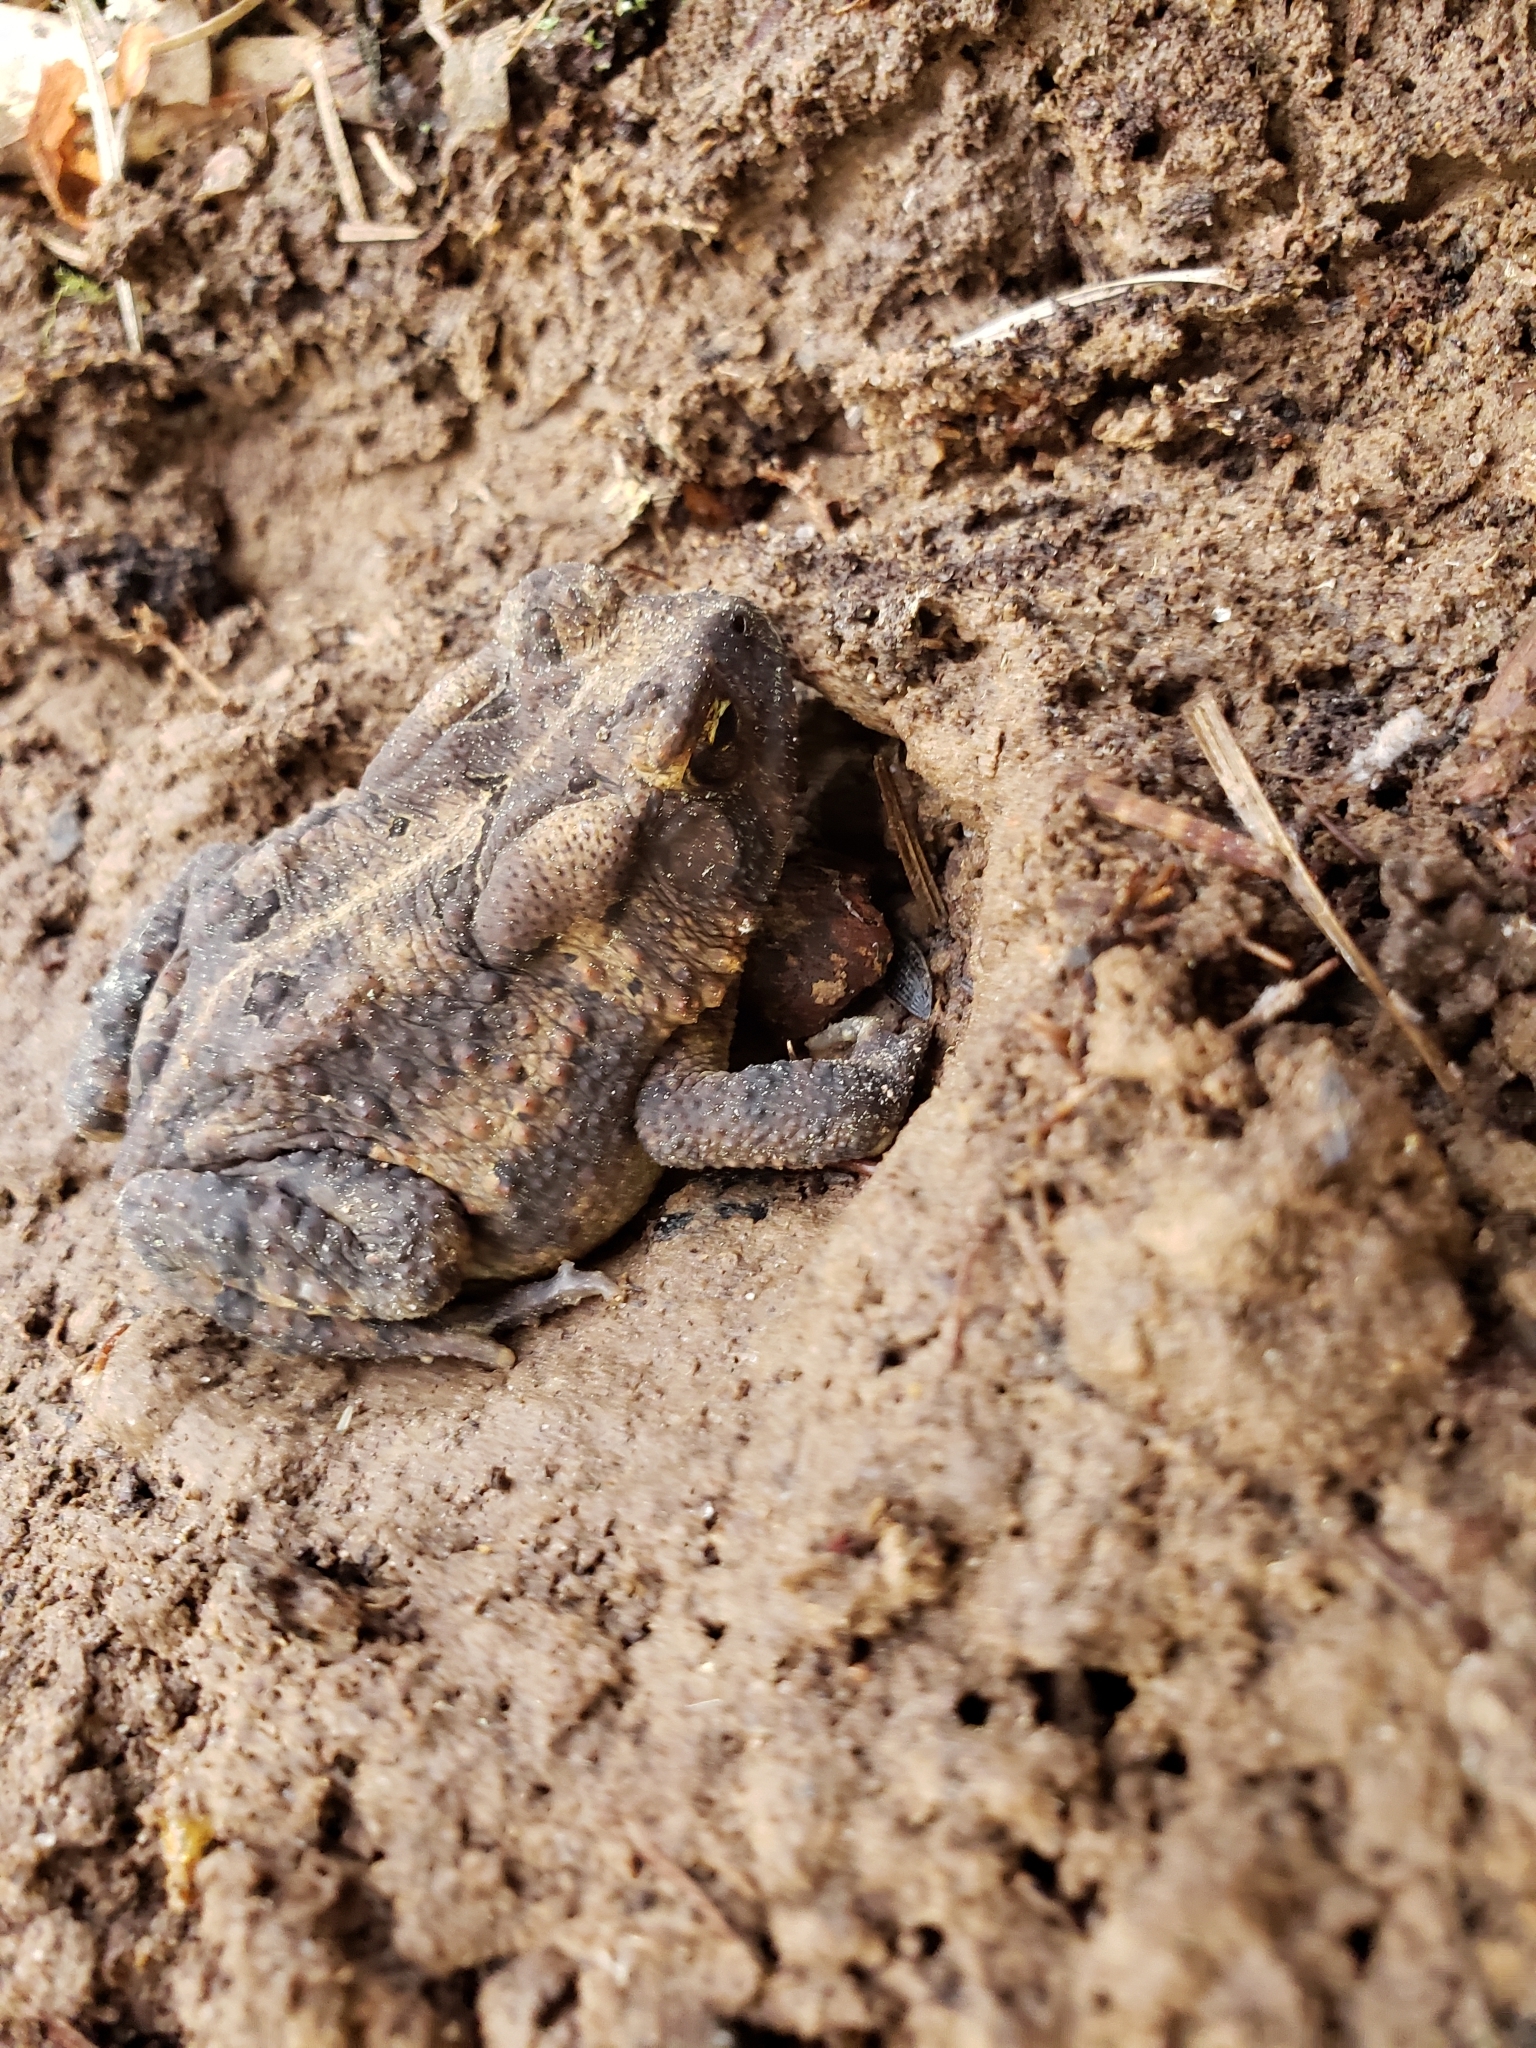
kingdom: Animalia
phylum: Chordata
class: Amphibia
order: Anura
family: Bufonidae
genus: Anaxyrus
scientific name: Anaxyrus fowleri
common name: Fowler's toad
